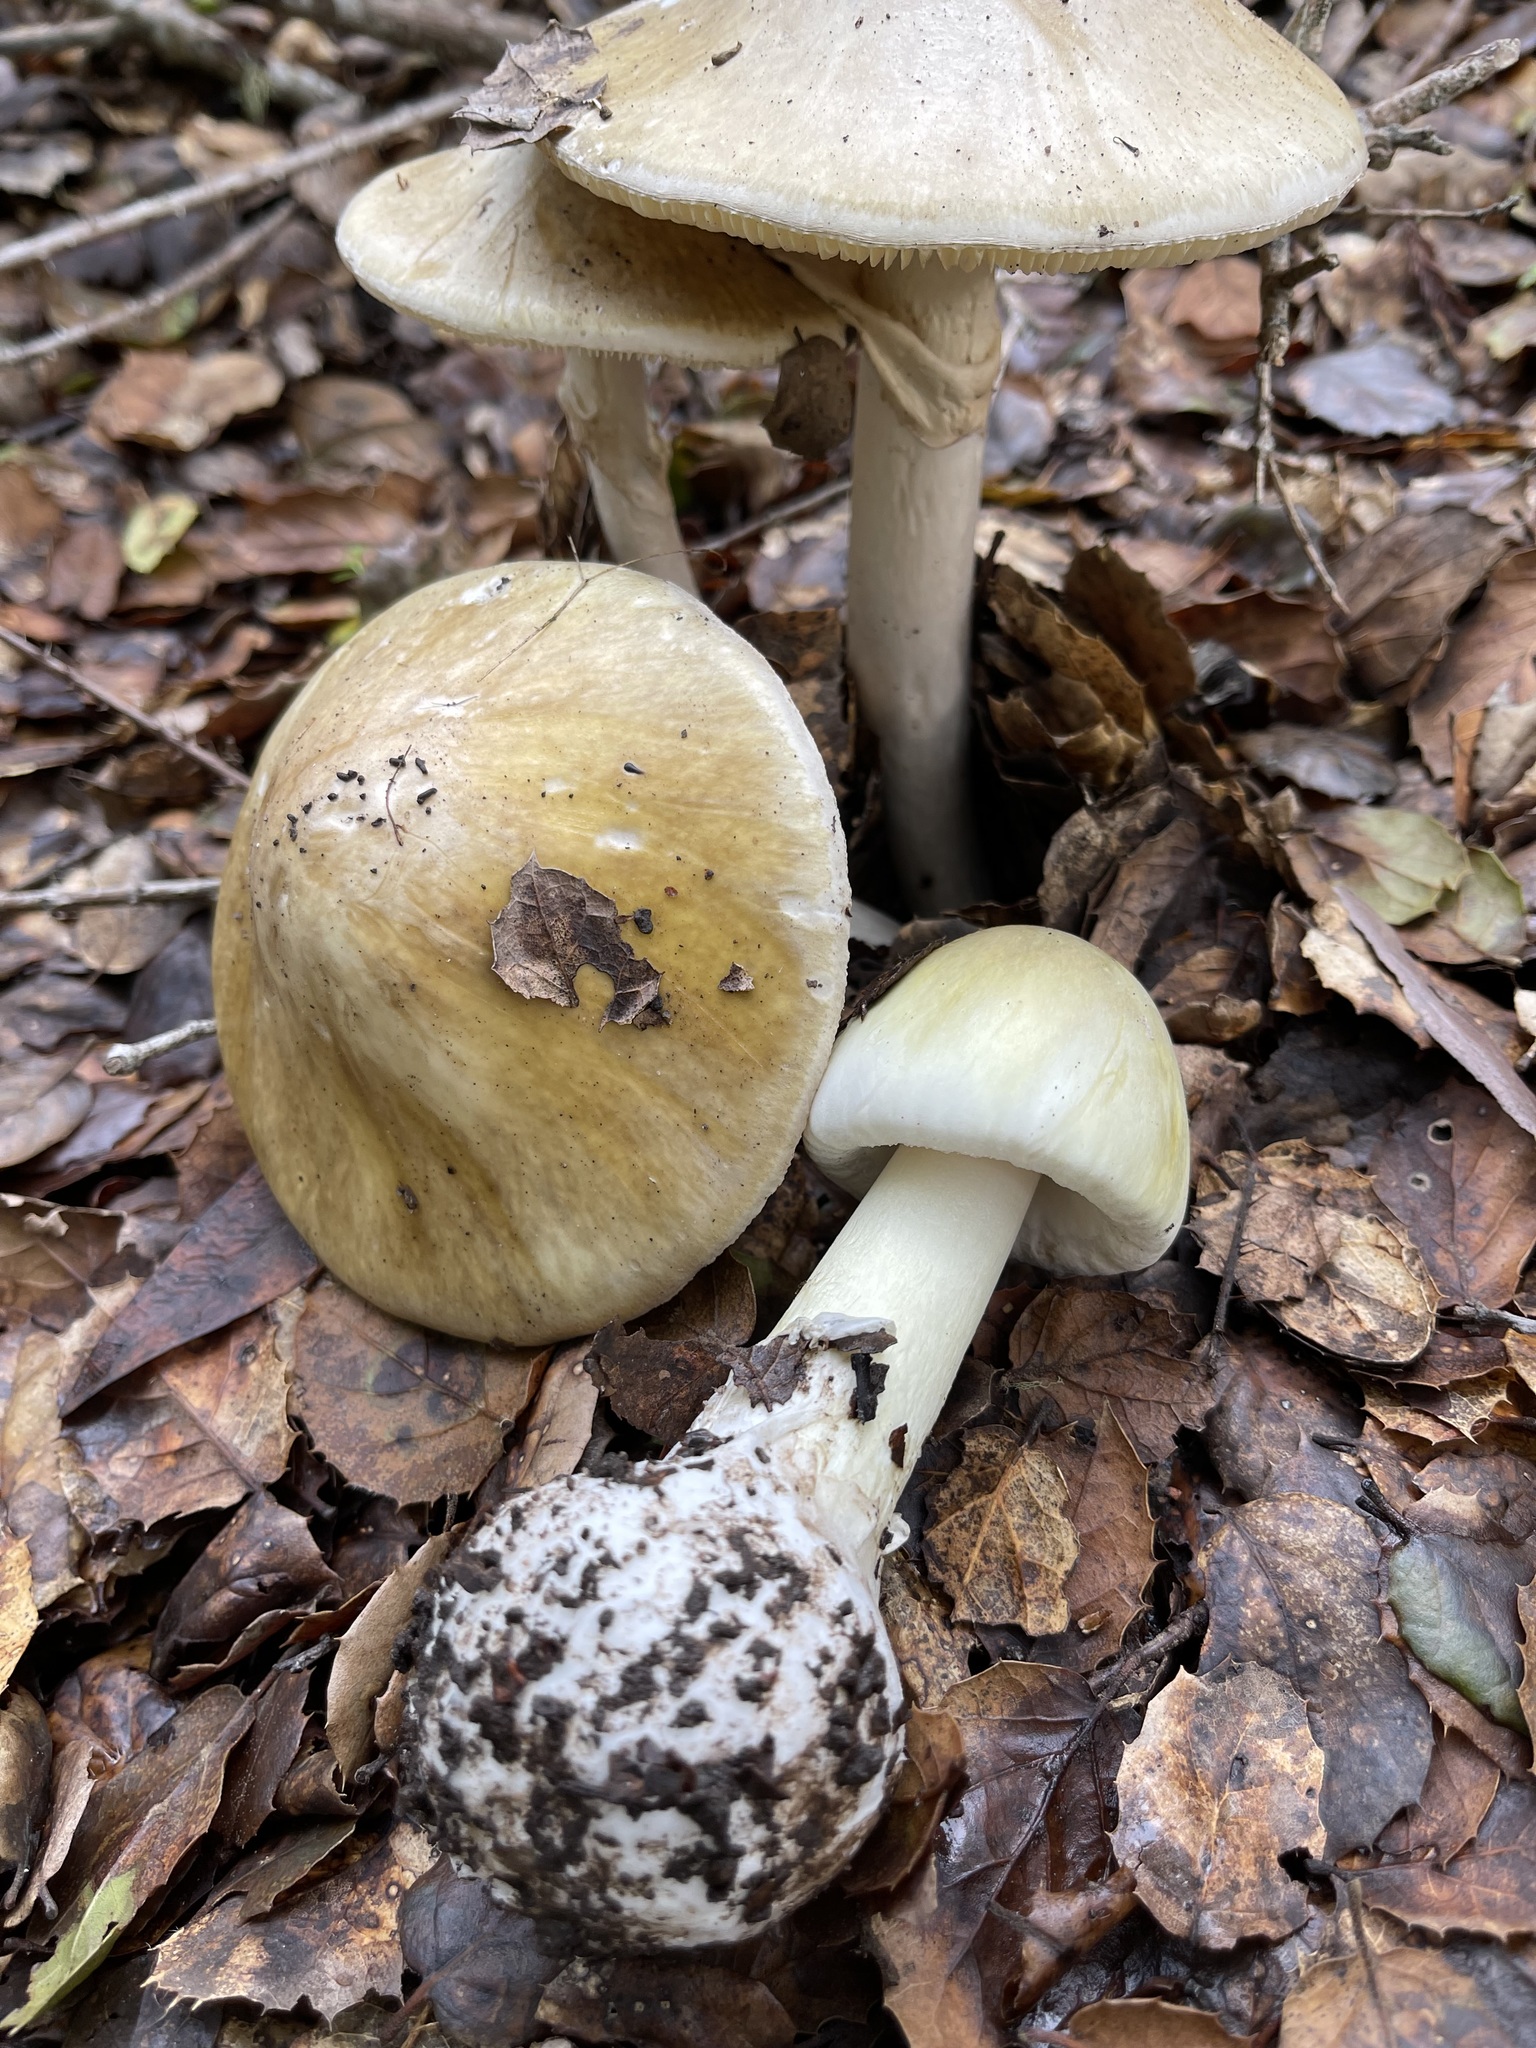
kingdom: Fungi
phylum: Basidiomycota
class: Agaricomycetes
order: Agaricales
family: Amanitaceae
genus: Amanita
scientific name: Amanita phalloides
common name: Death cap
